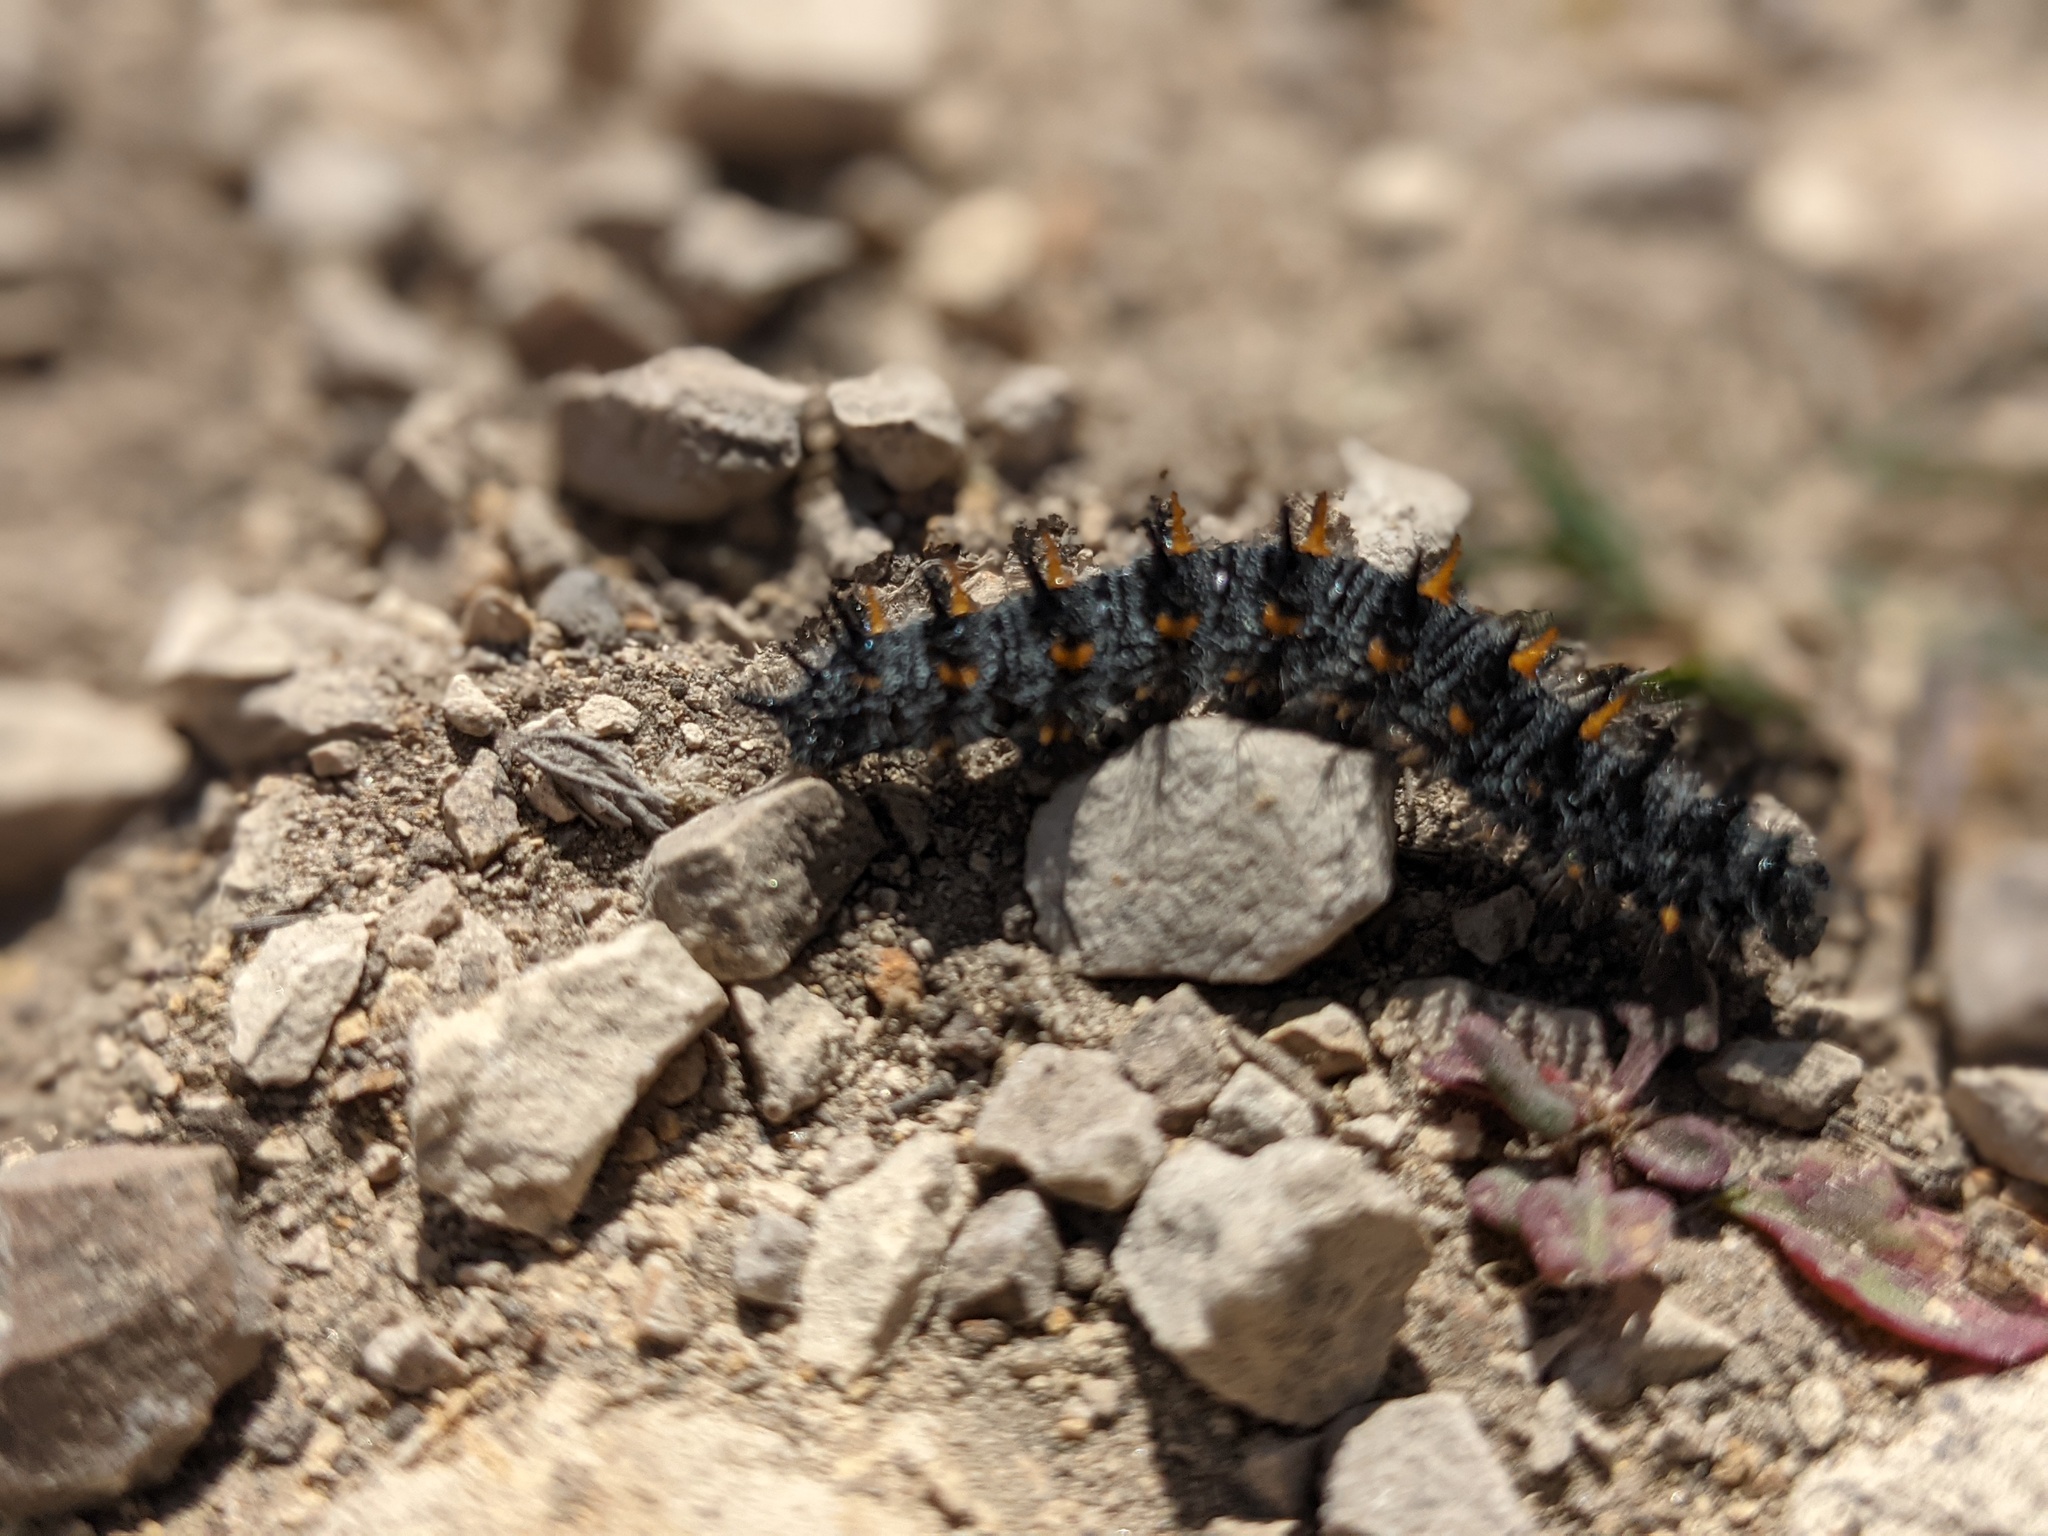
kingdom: Animalia
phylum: Arthropoda
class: Insecta
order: Lepidoptera
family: Nymphalidae
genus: Occidryas
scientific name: Occidryas chalcedona
